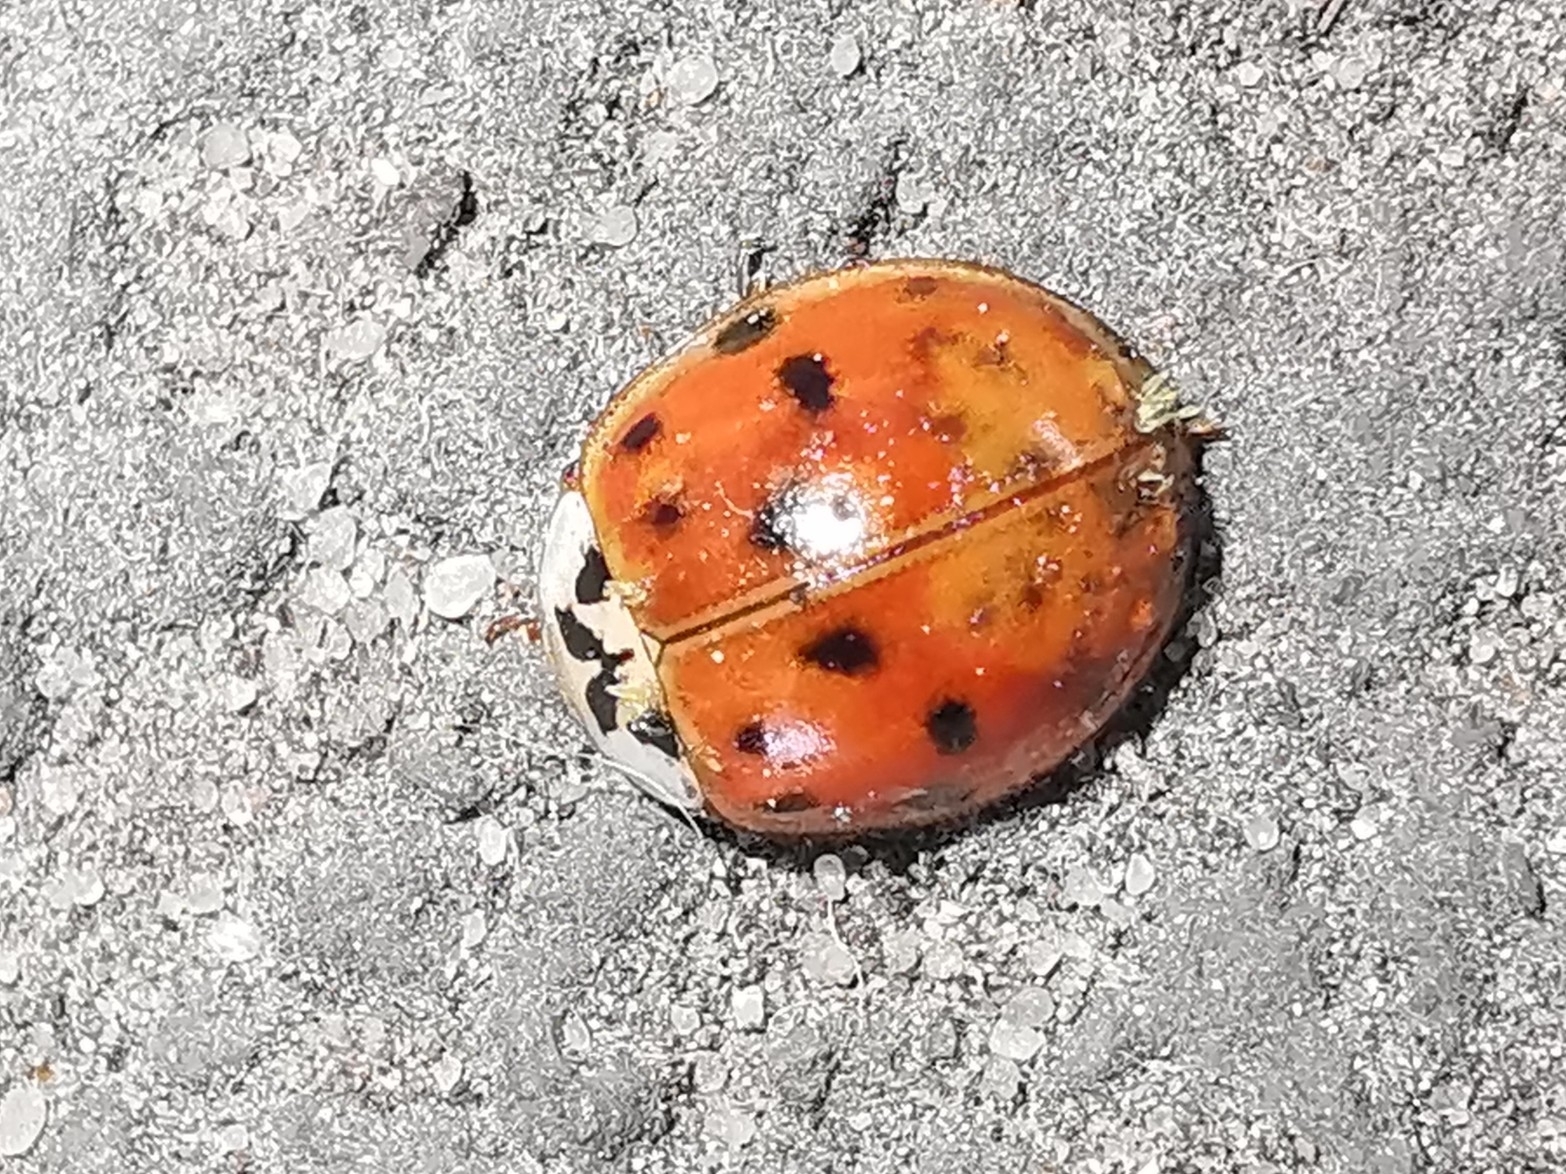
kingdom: Animalia
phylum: Arthropoda
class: Insecta
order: Coleoptera
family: Coccinellidae
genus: Harmonia
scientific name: Harmonia axyridis
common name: Harlequin ladybird
